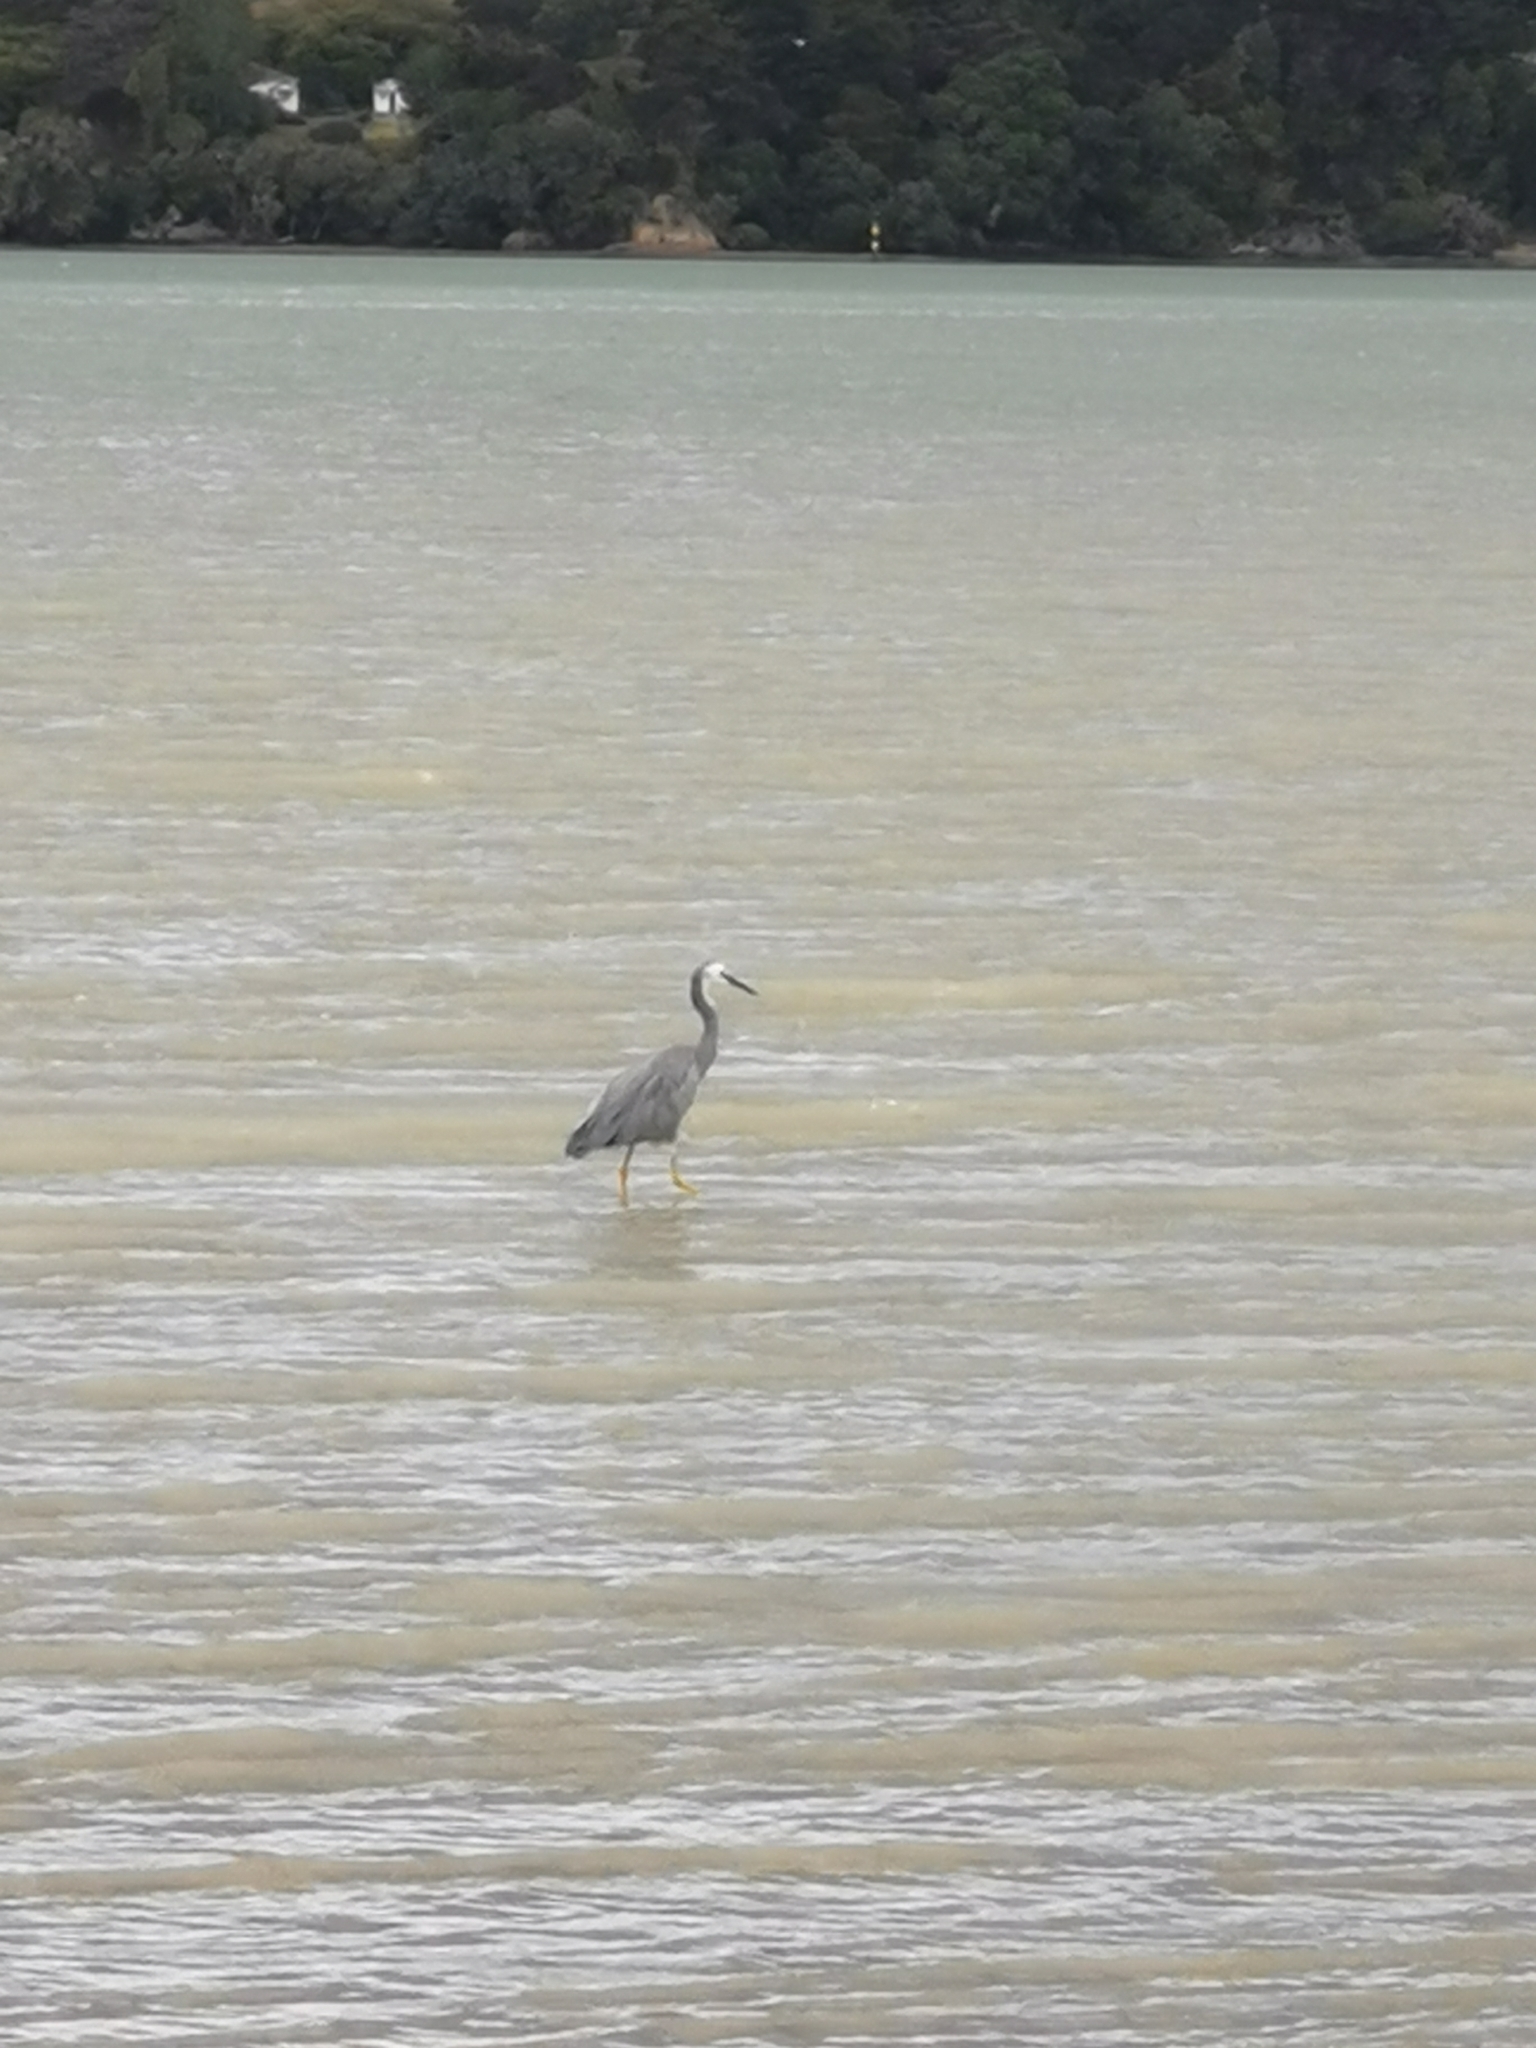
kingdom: Animalia
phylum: Chordata
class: Aves
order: Pelecaniformes
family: Ardeidae
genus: Egretta
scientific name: Egretta novaehollandiae
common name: White-faced heron
